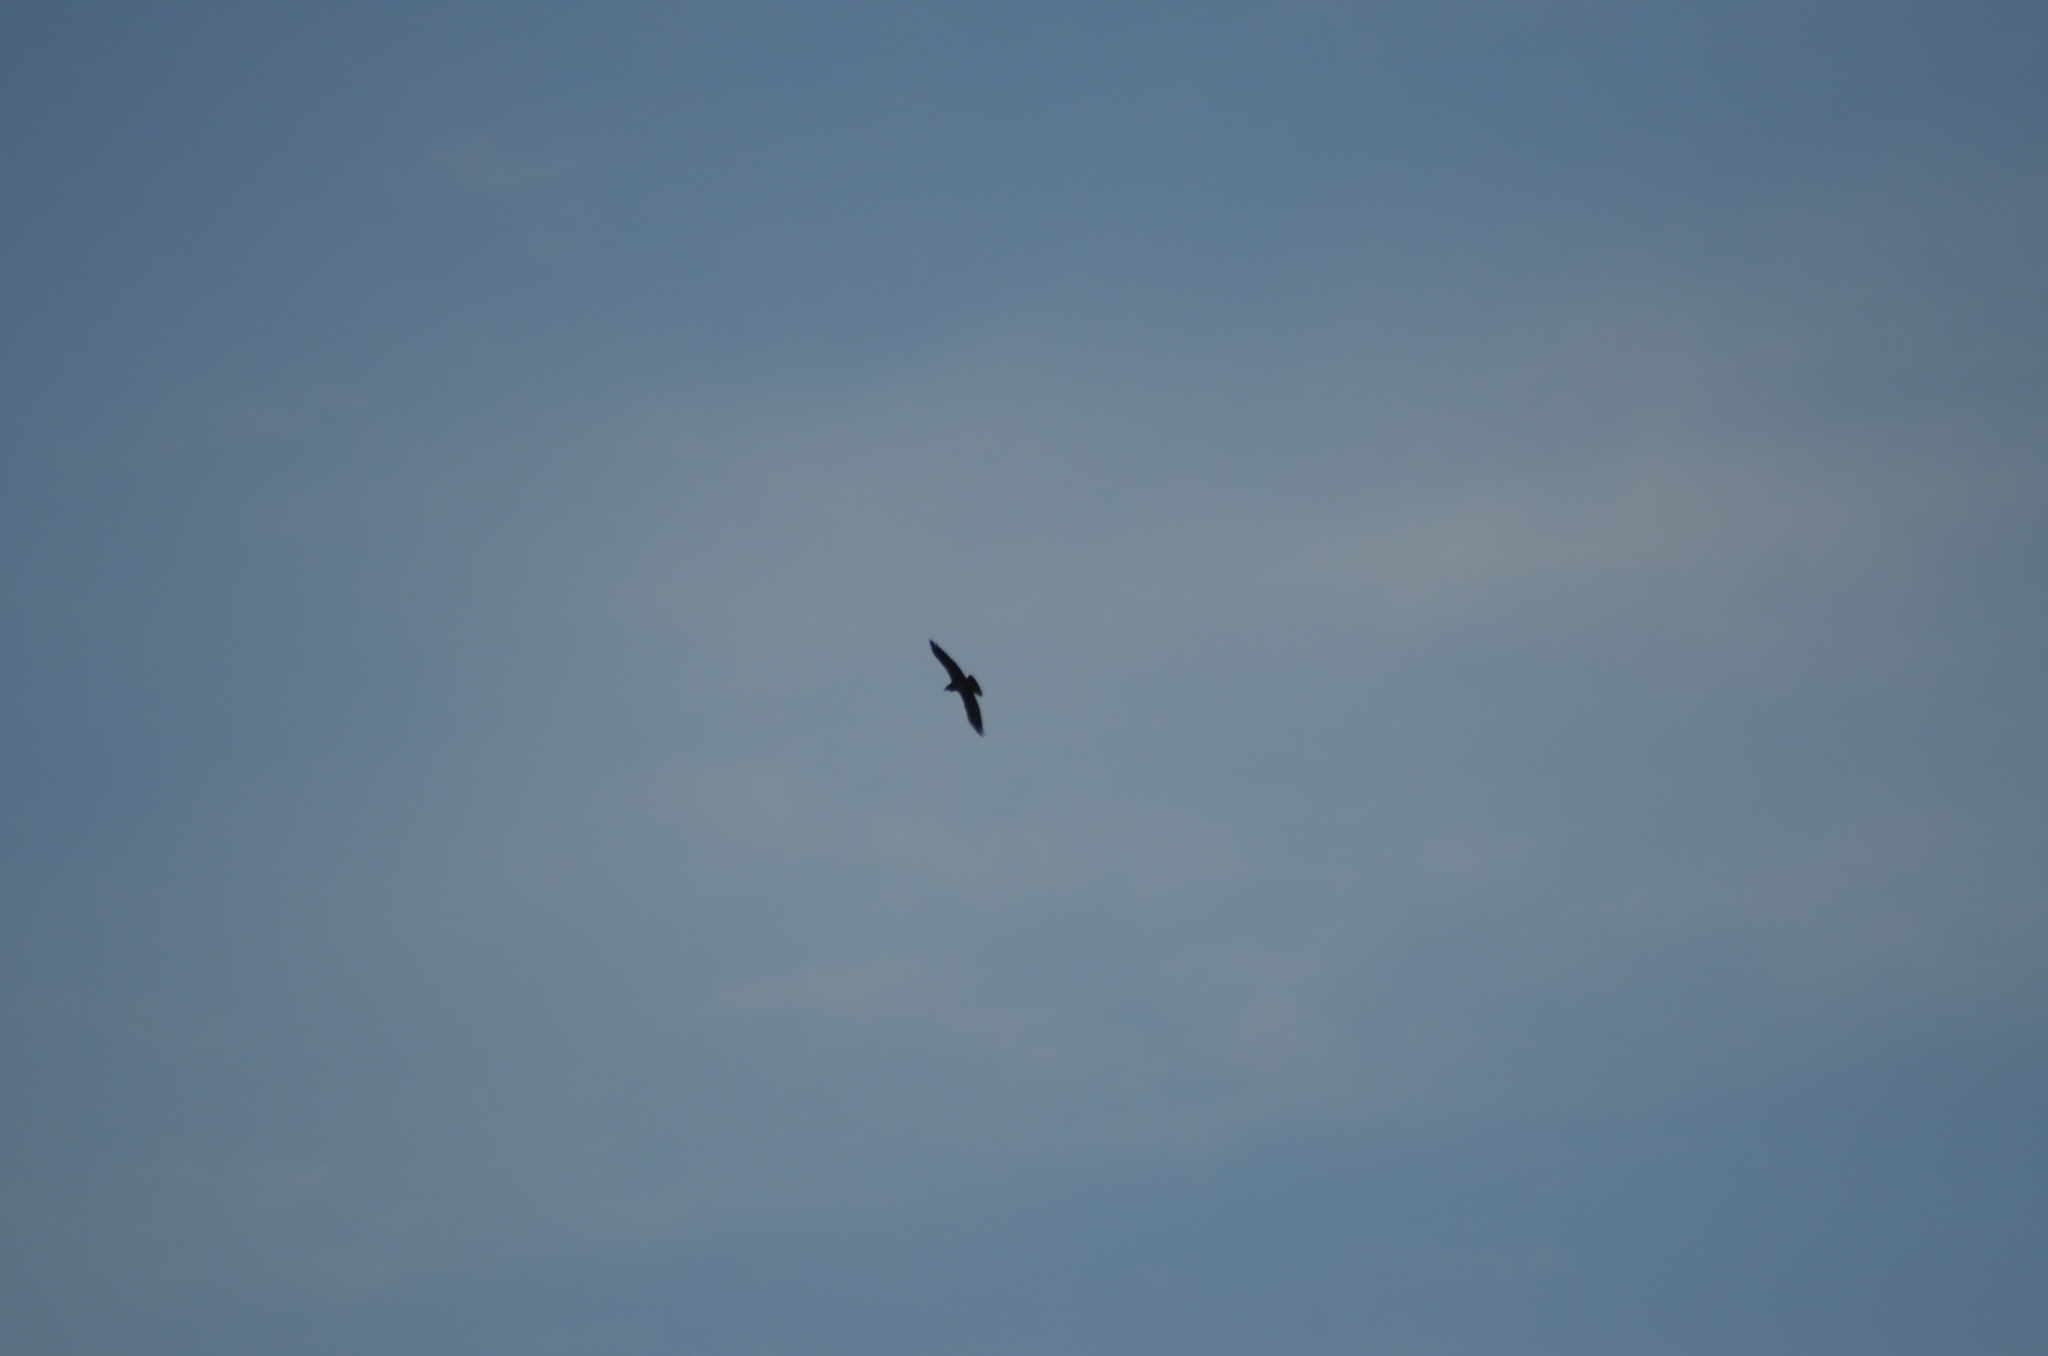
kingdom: Animalia
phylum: Chordata
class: Aves
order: Passeriformes
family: Corvidae
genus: Corvus
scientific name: Corvus corax
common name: Common raven
